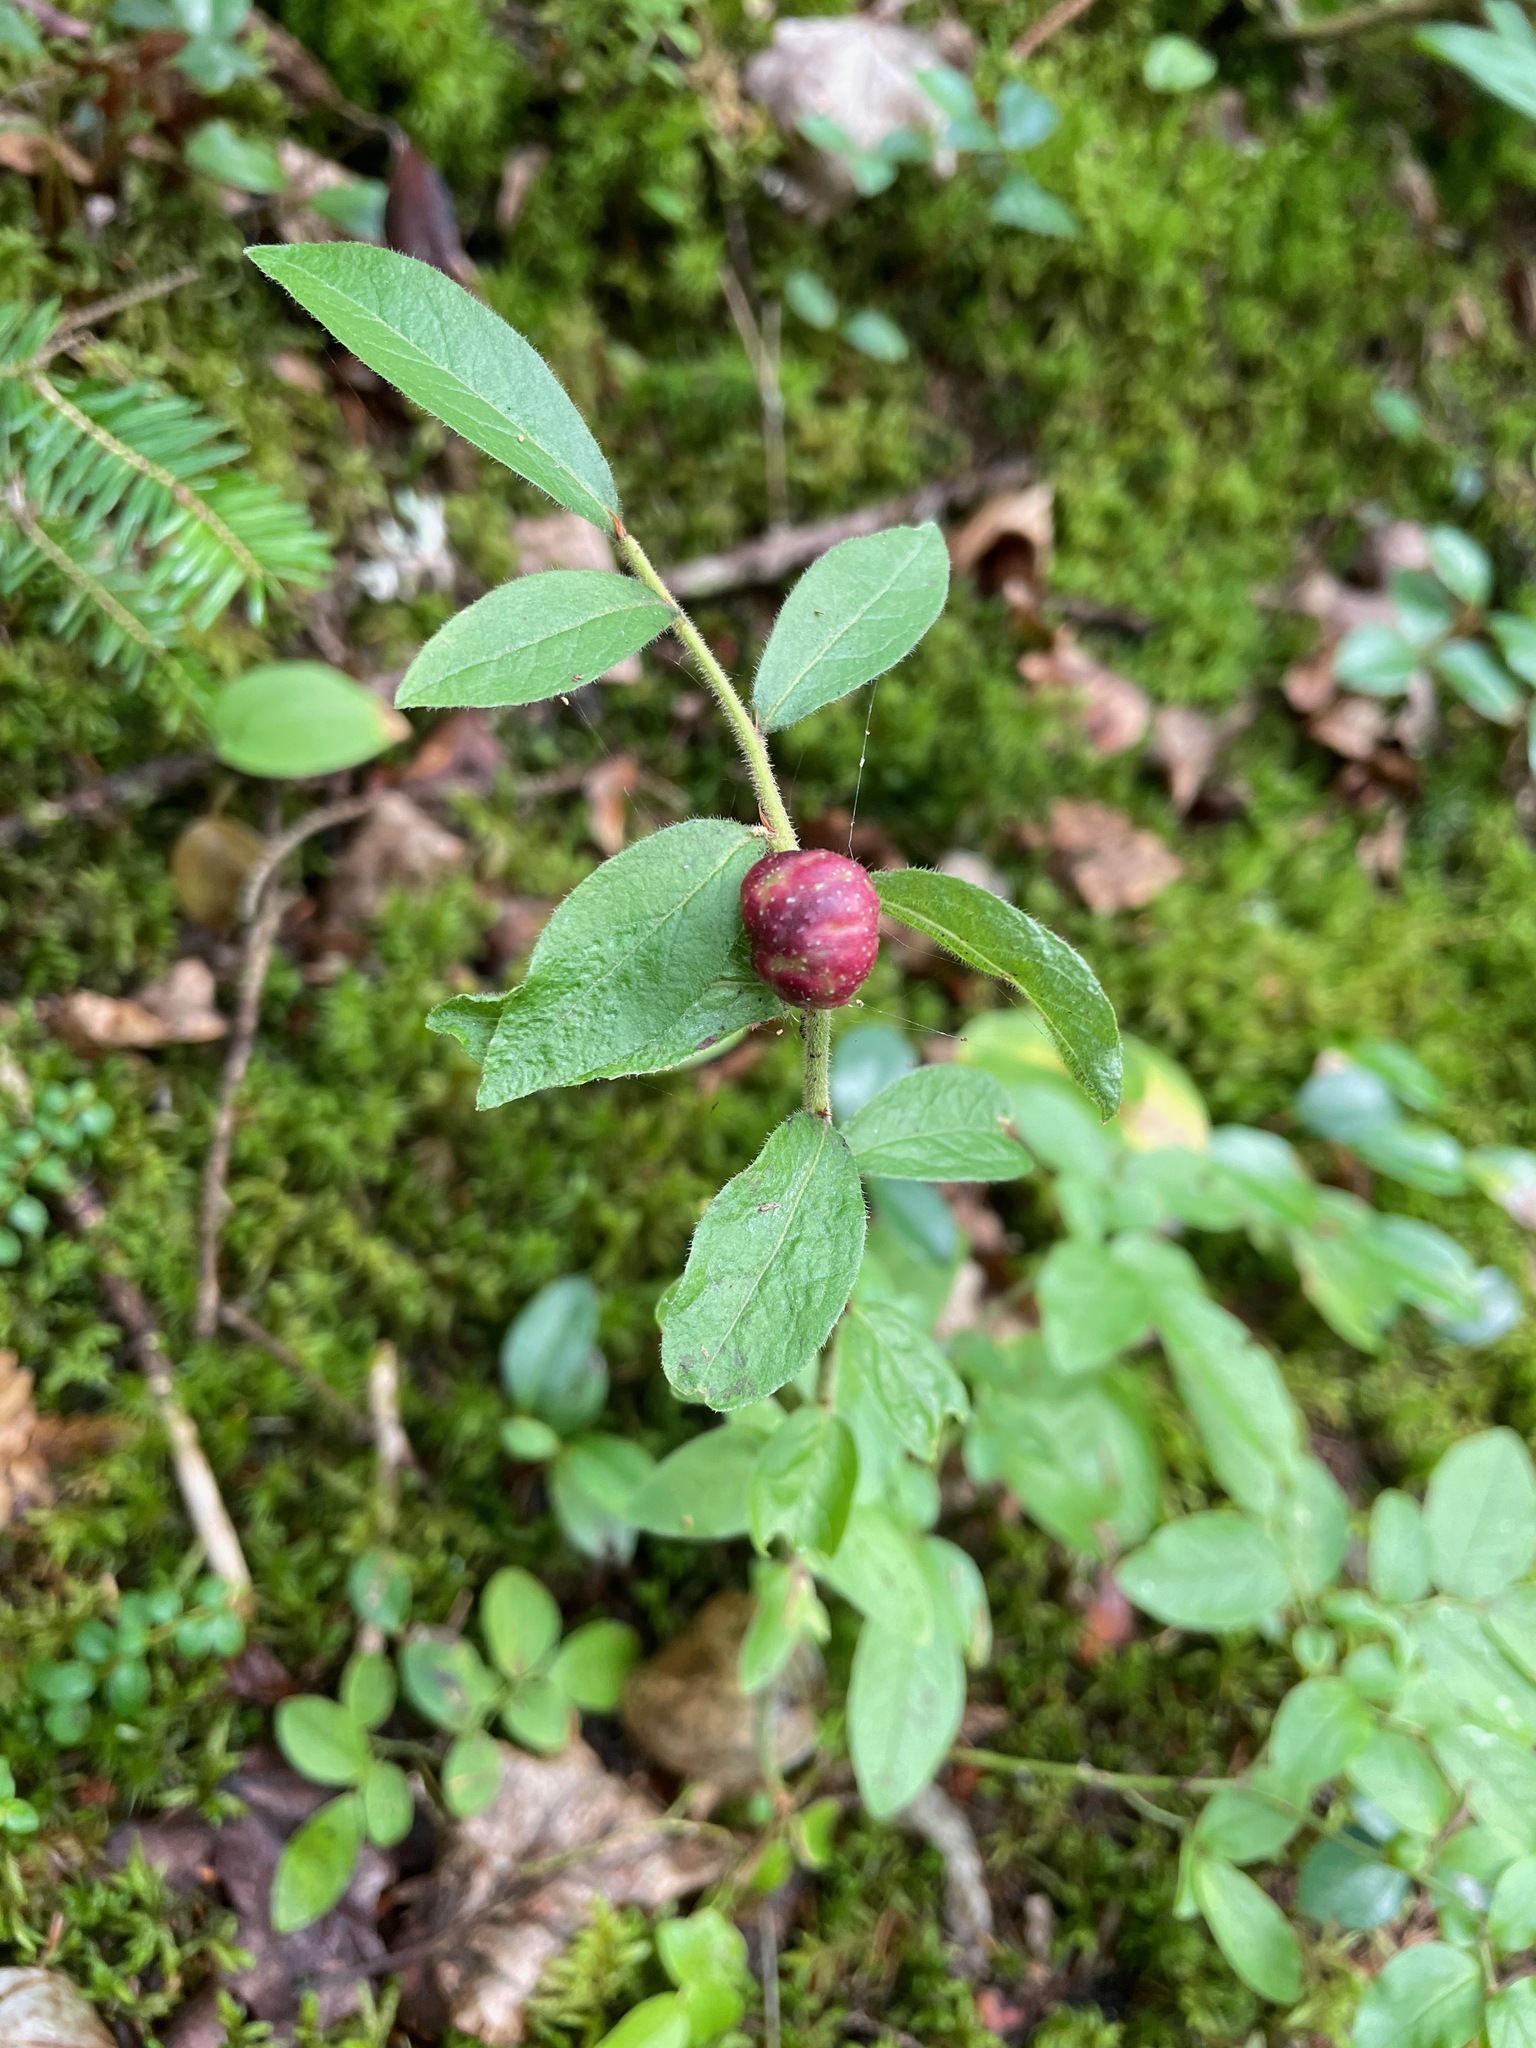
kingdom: Animalia
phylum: Arthropoda
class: Insecta
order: Hymenoptera
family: Pteromalidae
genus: Hemadas
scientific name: Hemadas nubilipennis
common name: Blueberry stem gall wasp
